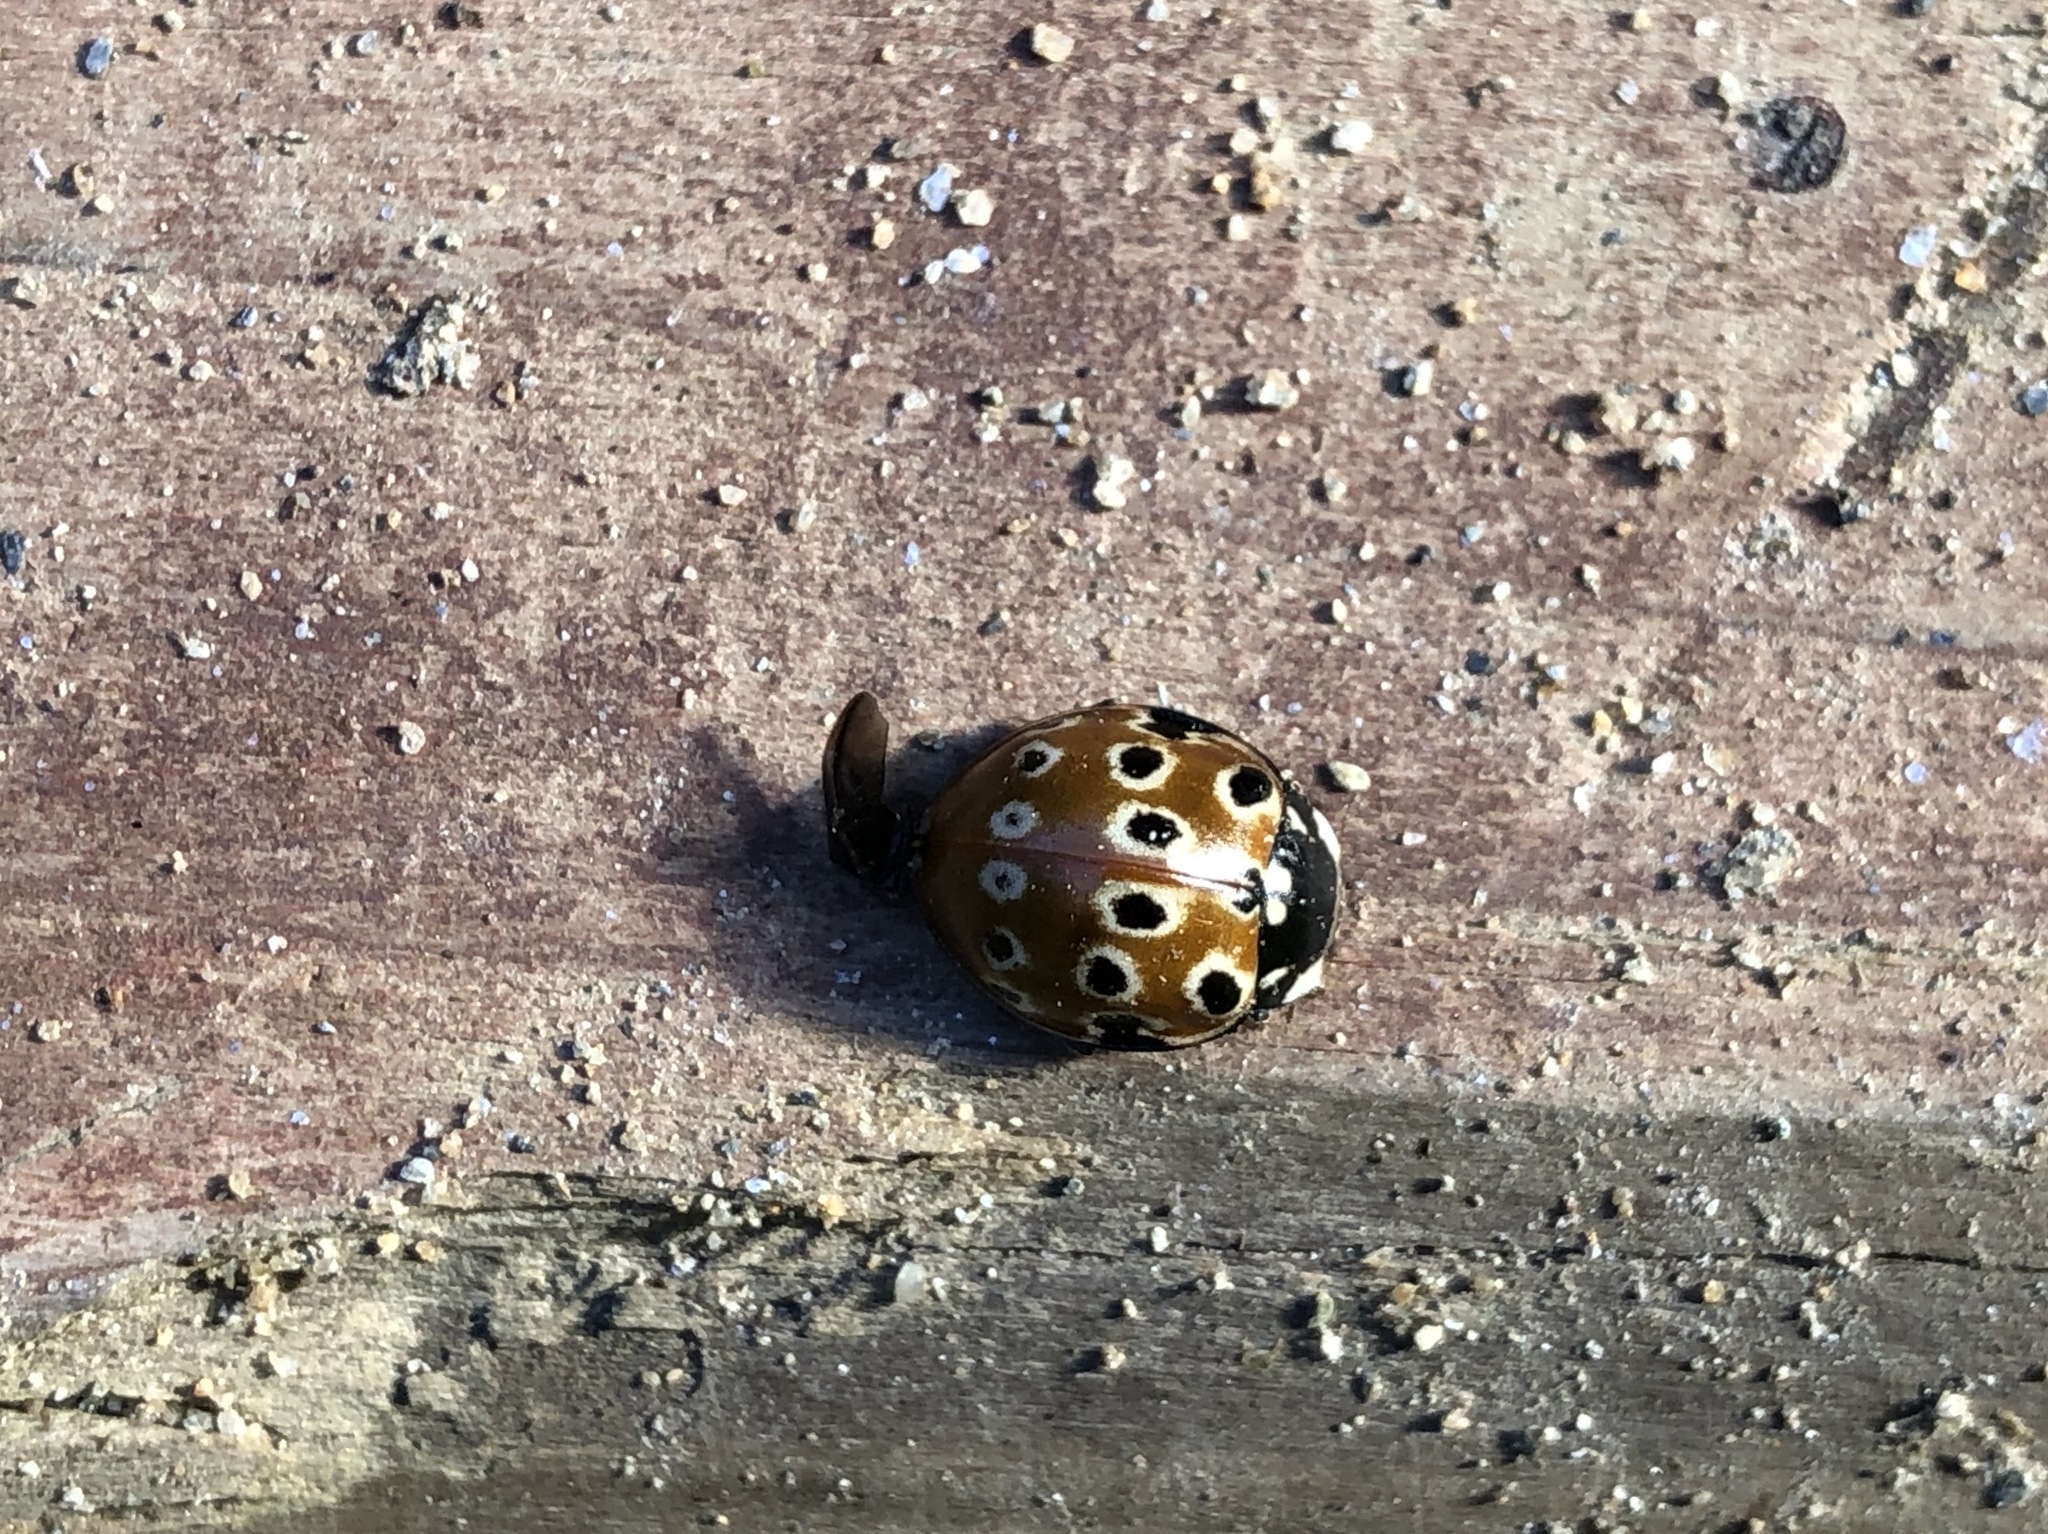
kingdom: Animalia
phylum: Arthropoda
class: Insecta
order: Coleoptera
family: Coccinellidae
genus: Anatis
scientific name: Anatis mali
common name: Eye-spotted lady beetle
